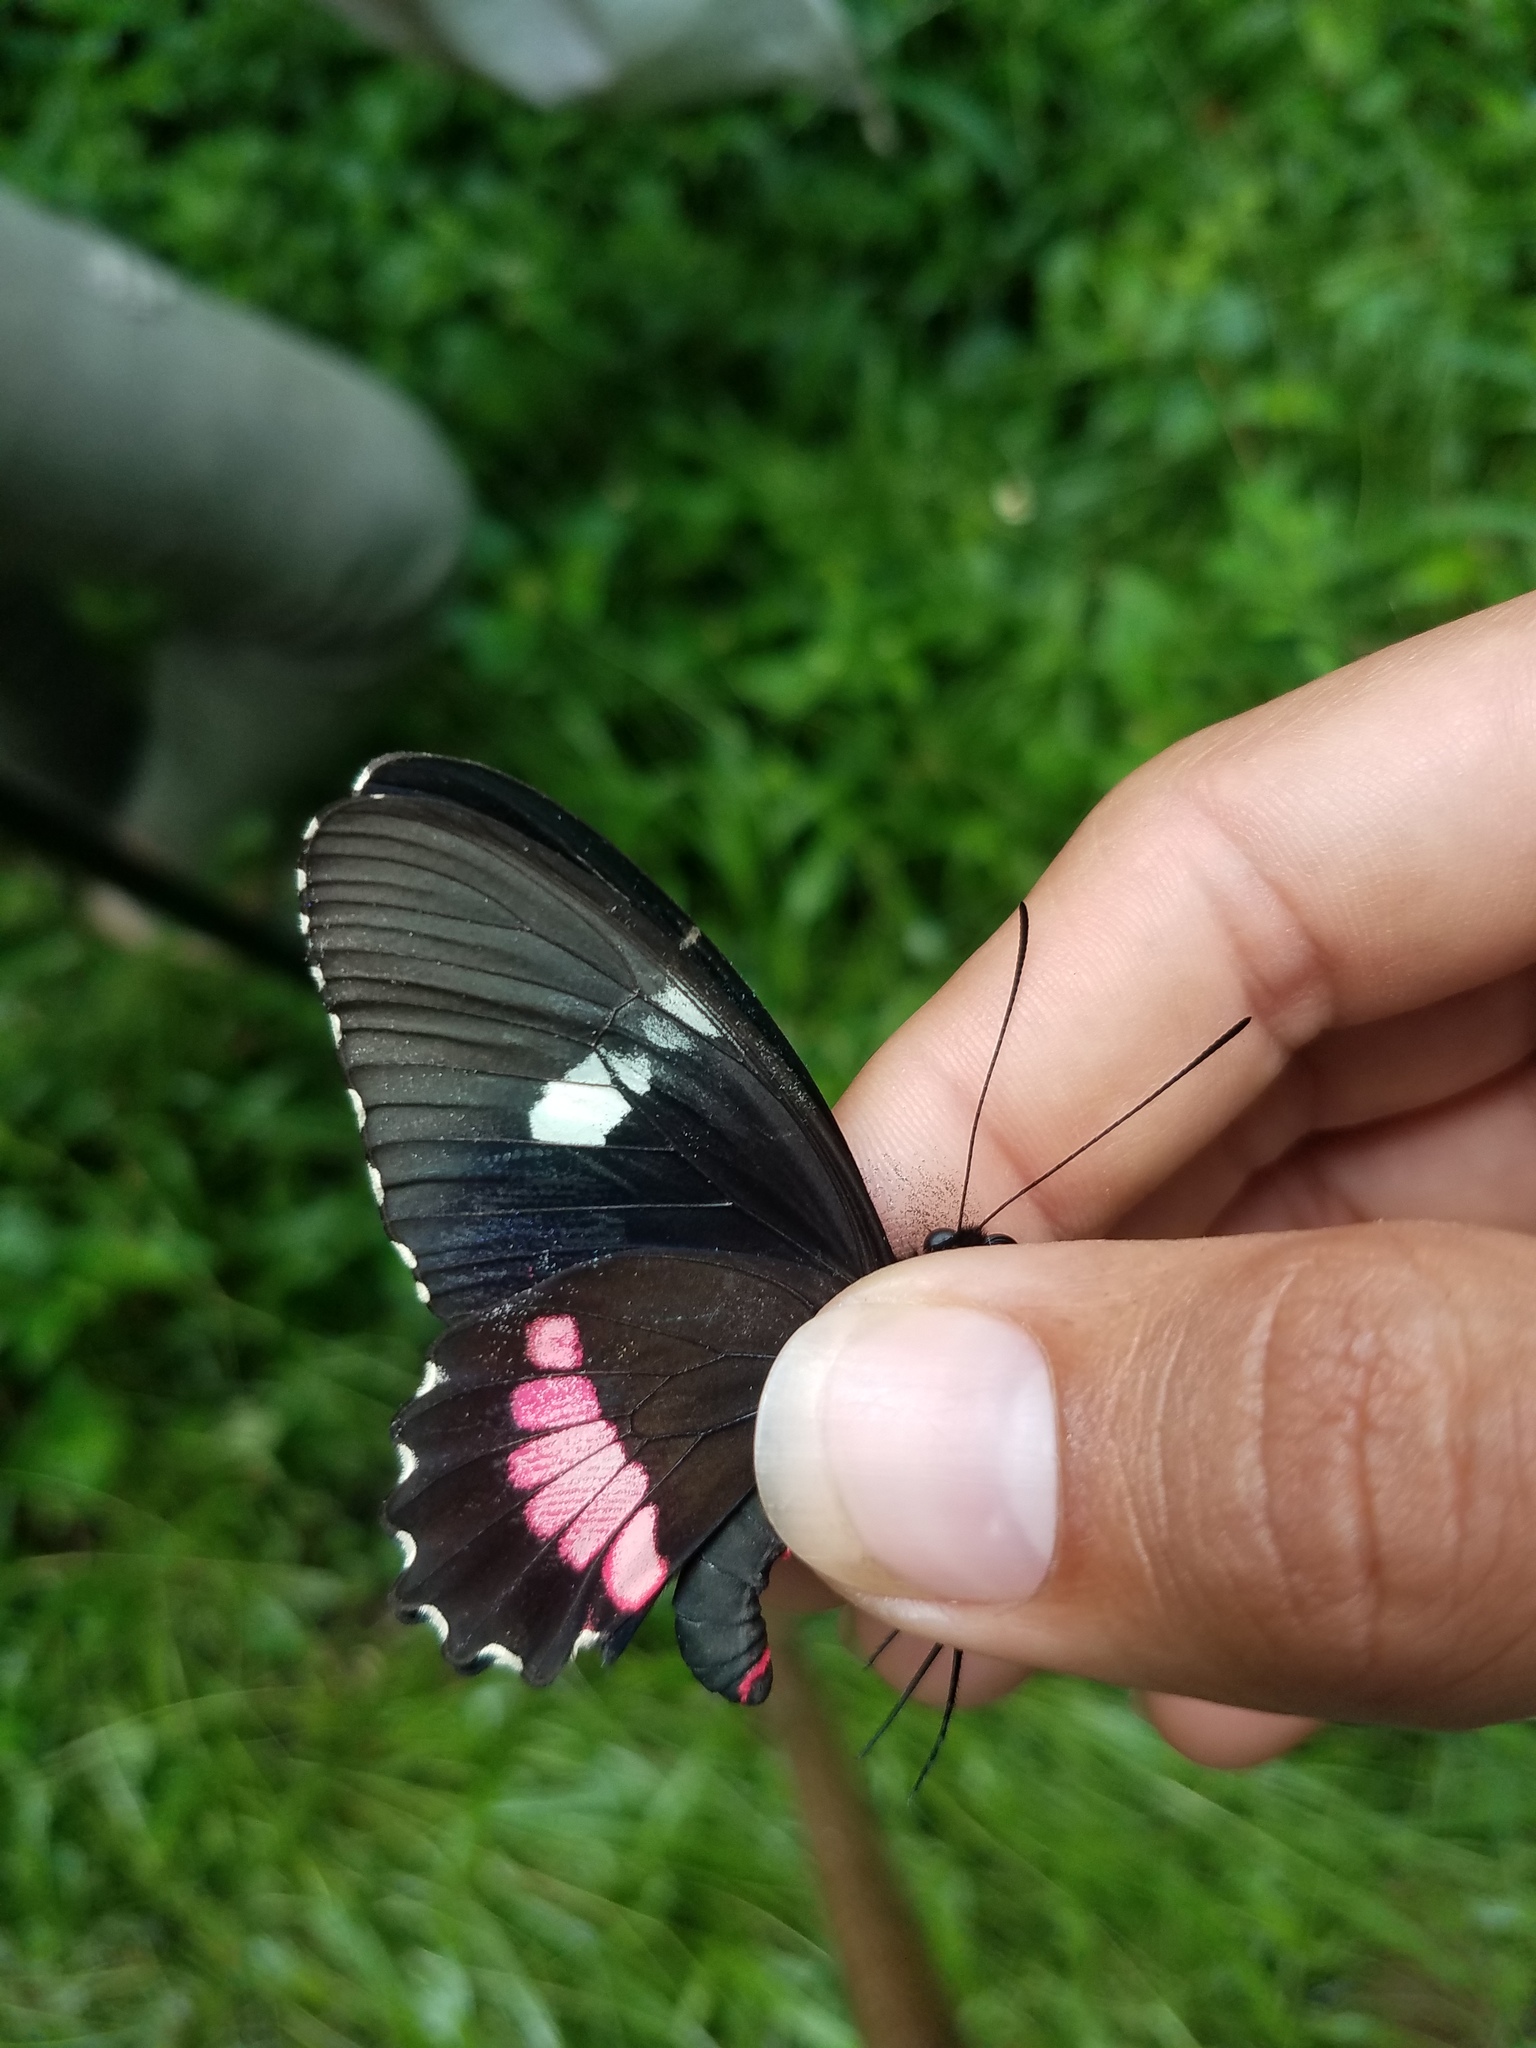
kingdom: Animalia
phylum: Arthropoda
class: Insecta
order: Lepidoptera
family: Papilionidae
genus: Parides
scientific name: Parides iphidamas
